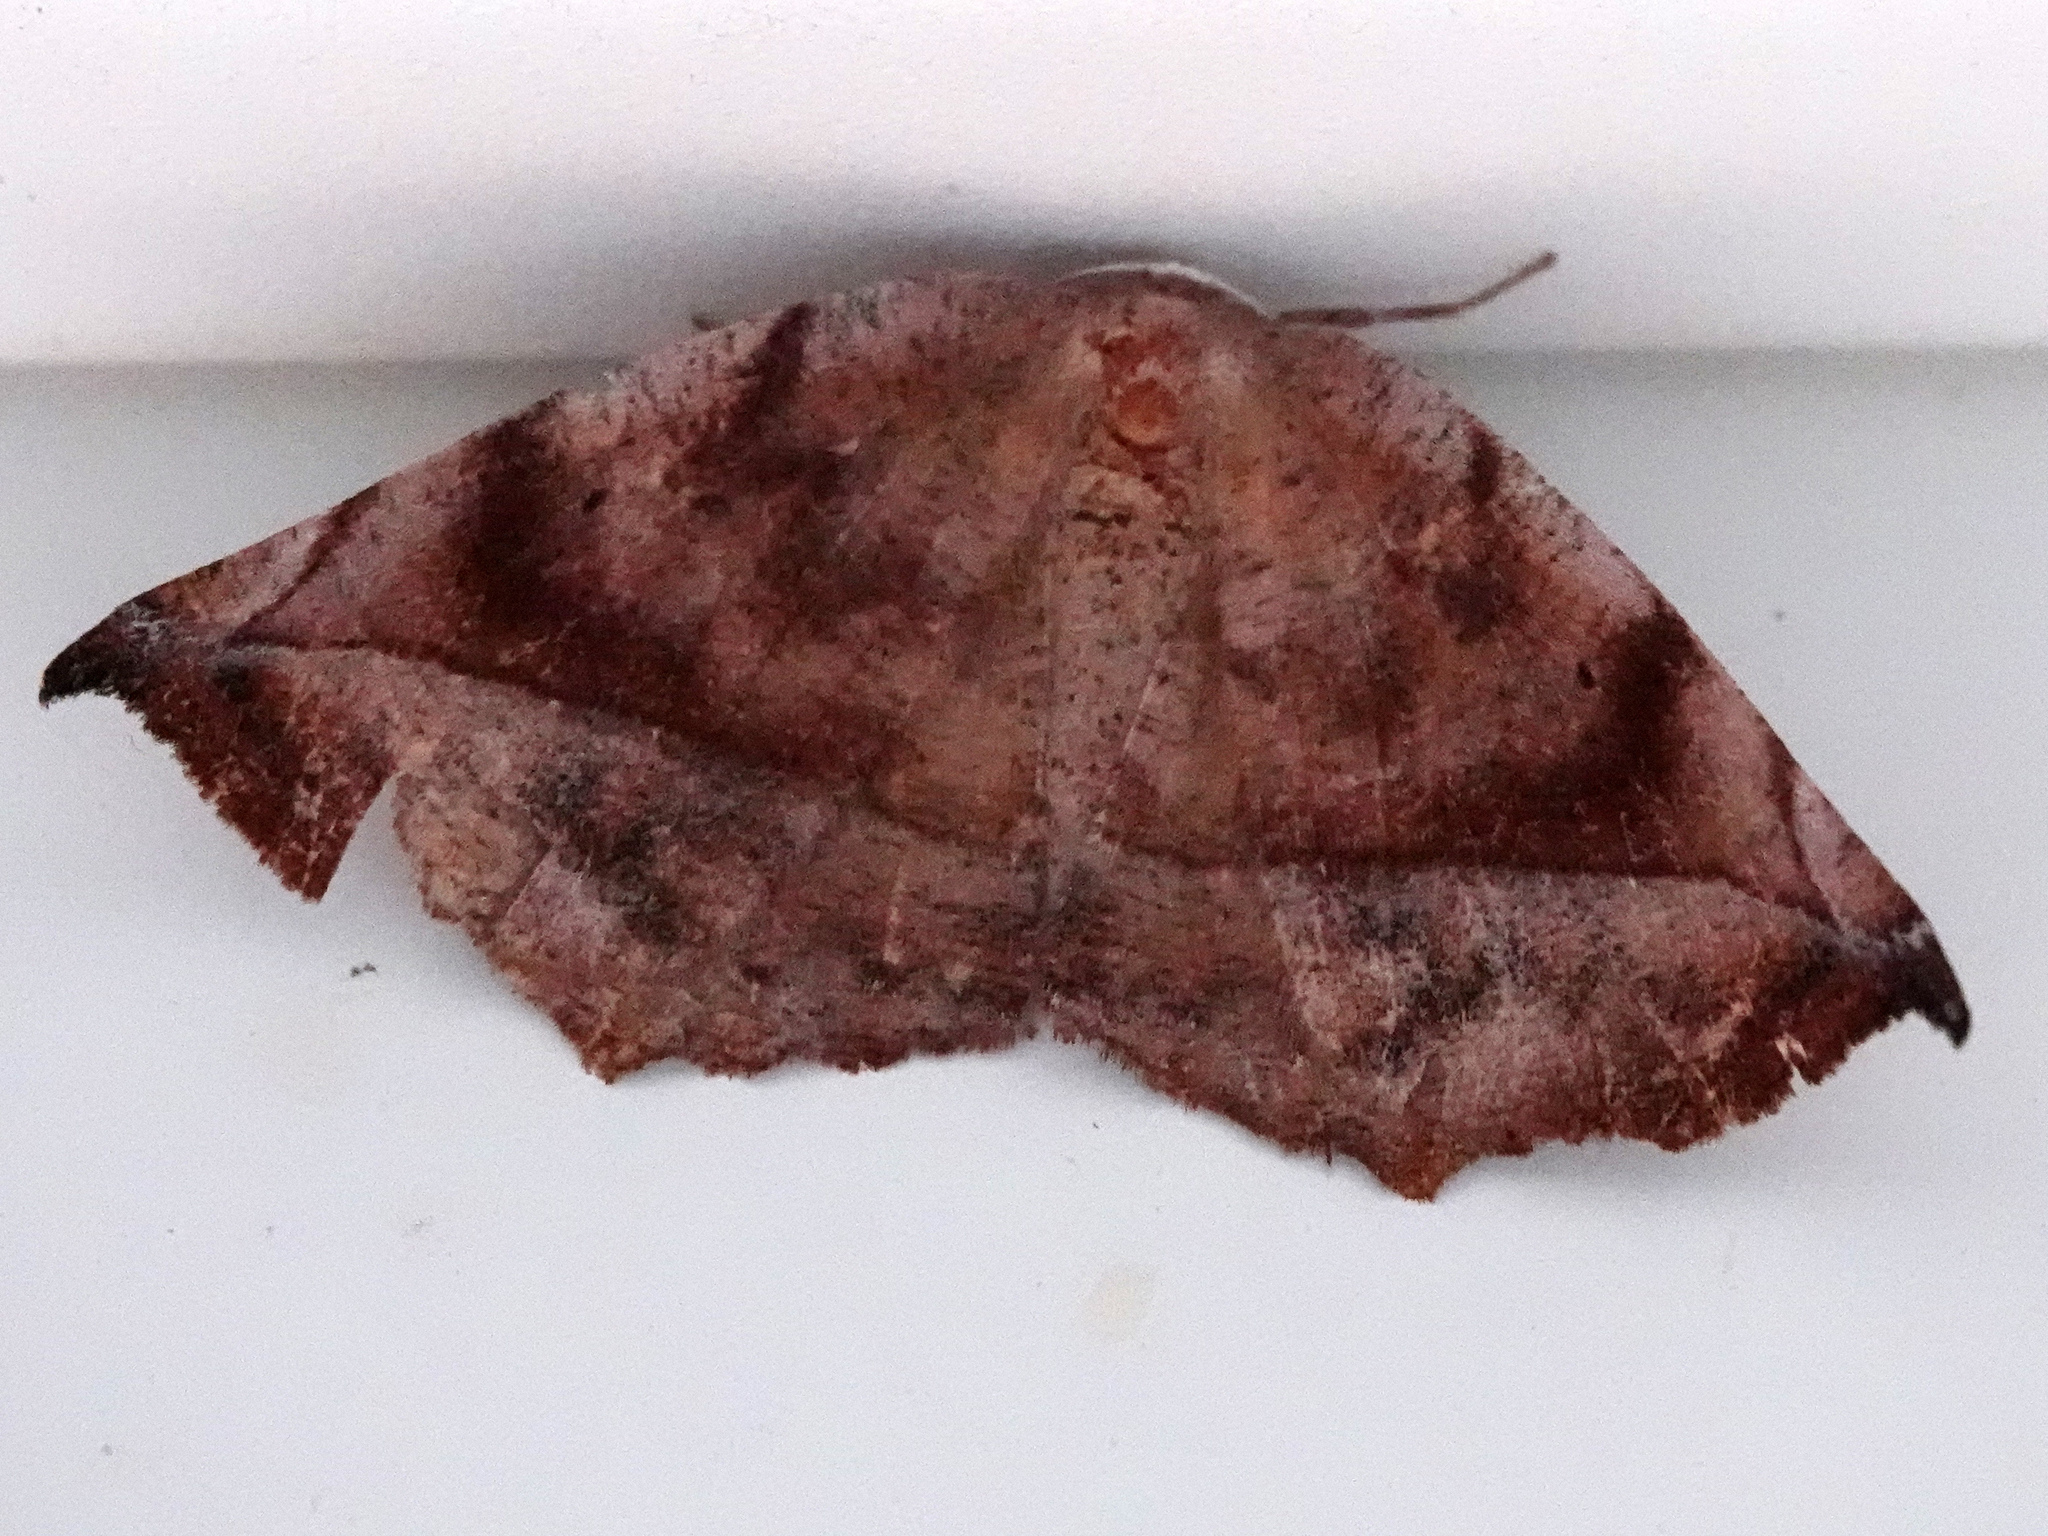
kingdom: Animalia
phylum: Arthropoda
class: Insecta
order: Lepidoptera
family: Geometridae
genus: Eutrapela
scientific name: Eutrapela clemataria
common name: Curved-toothed geometer
